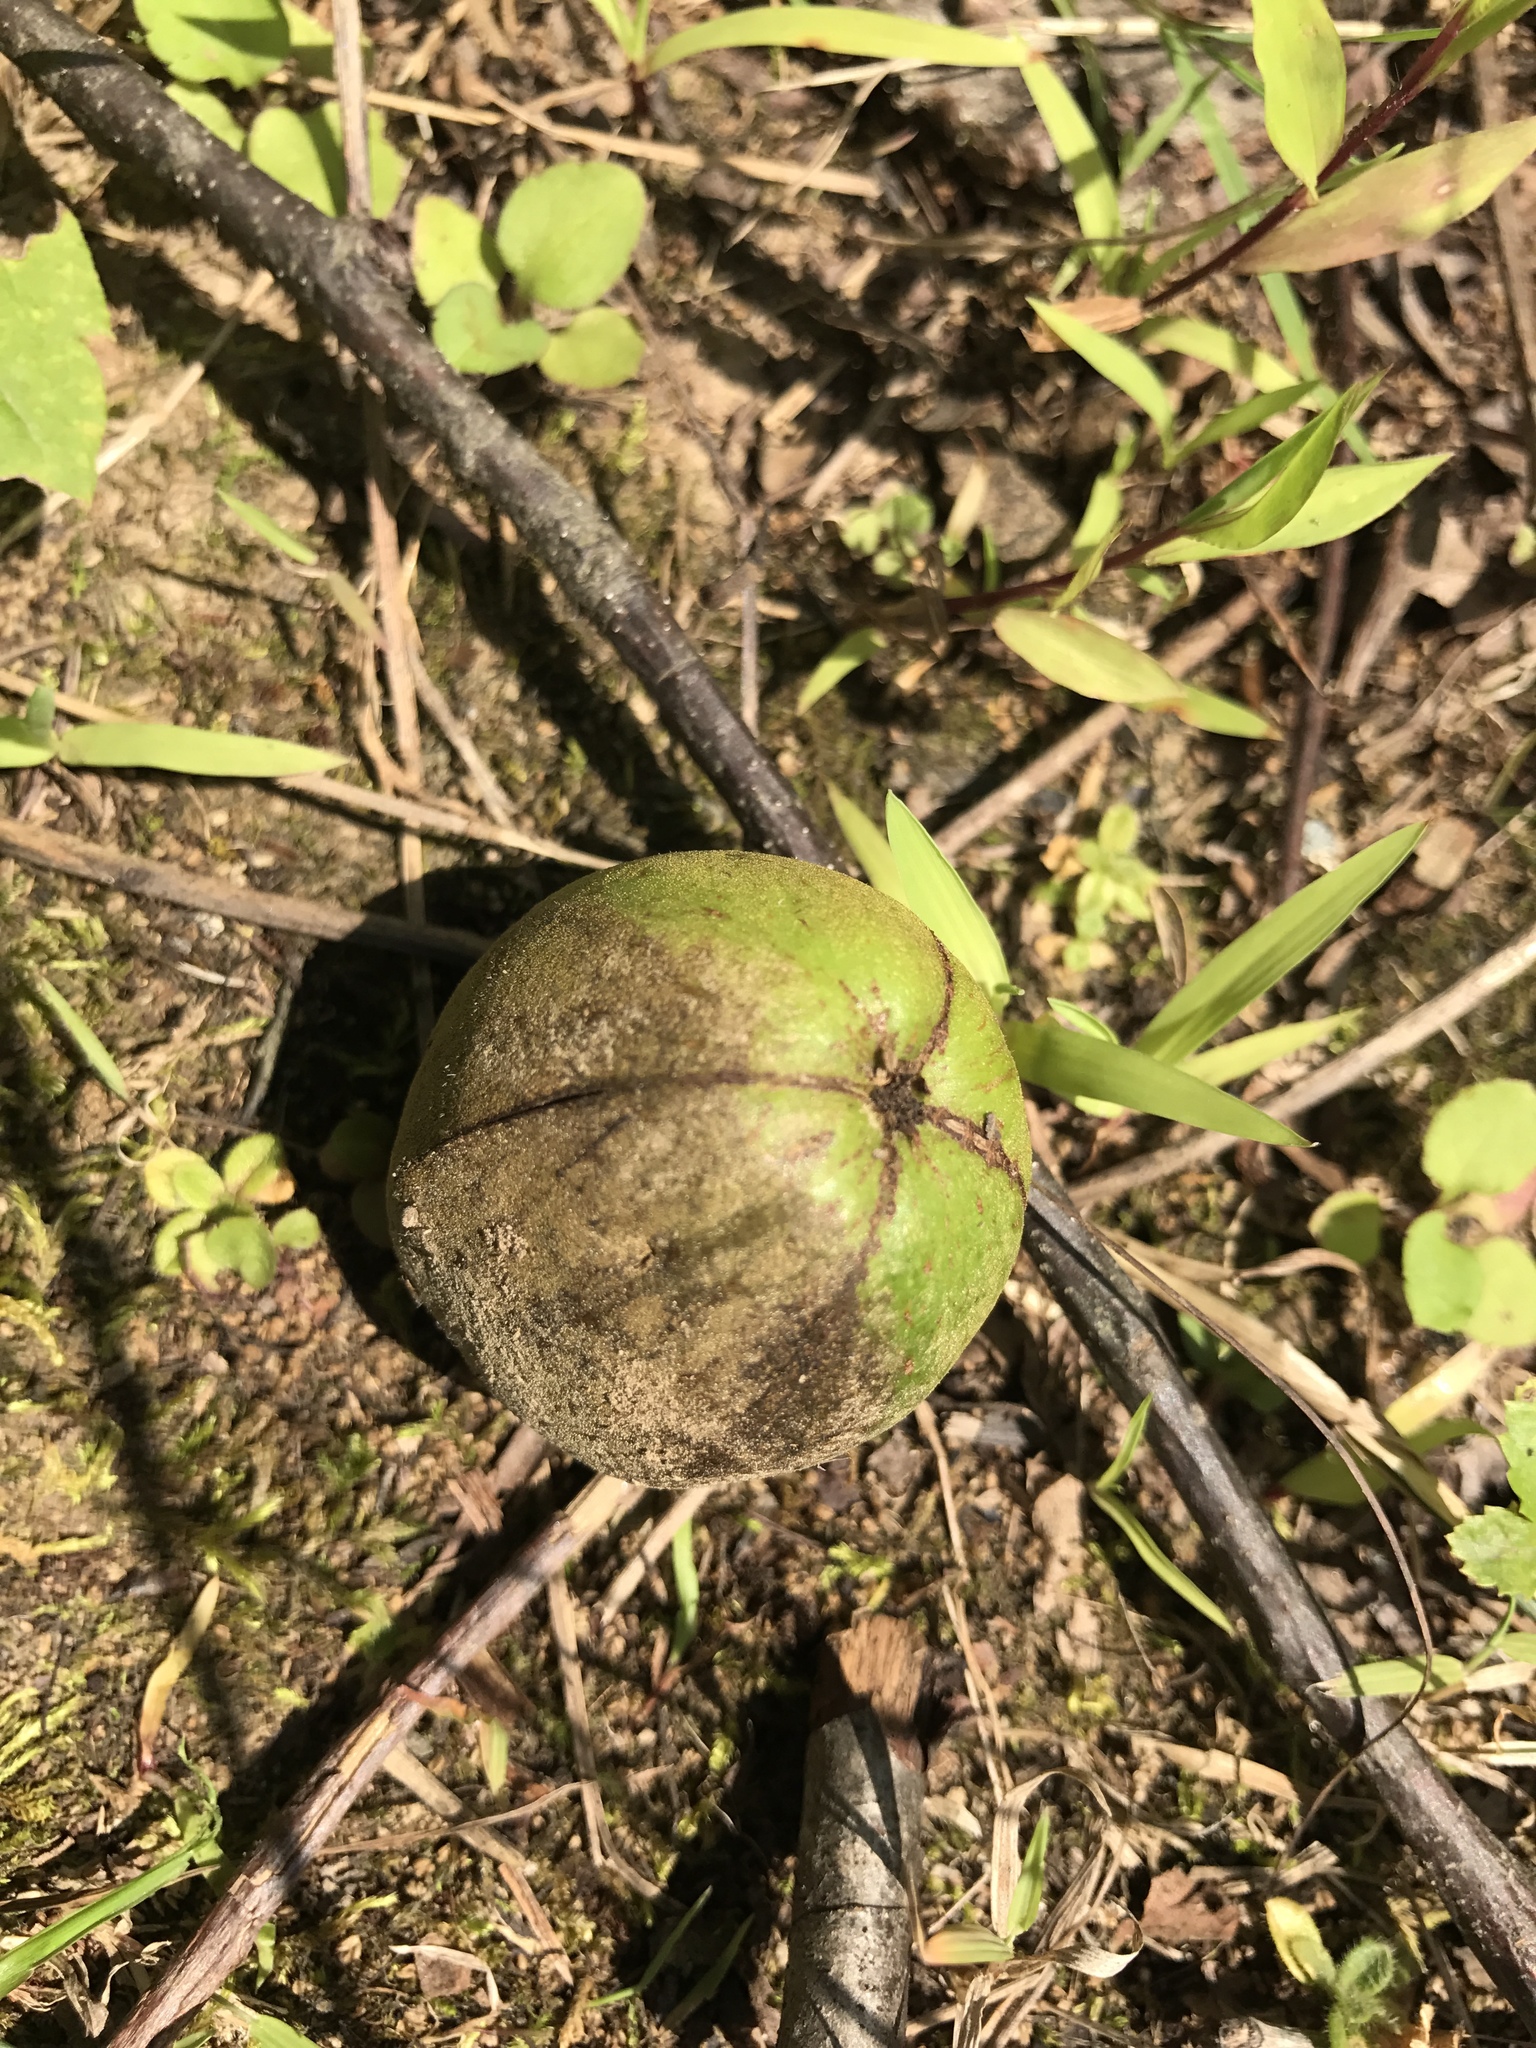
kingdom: Plantae
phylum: Tracheophyta
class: Magnoliopsida
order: Fagales
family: Juglandaceae
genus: Carya
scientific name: Carya laciniosa
